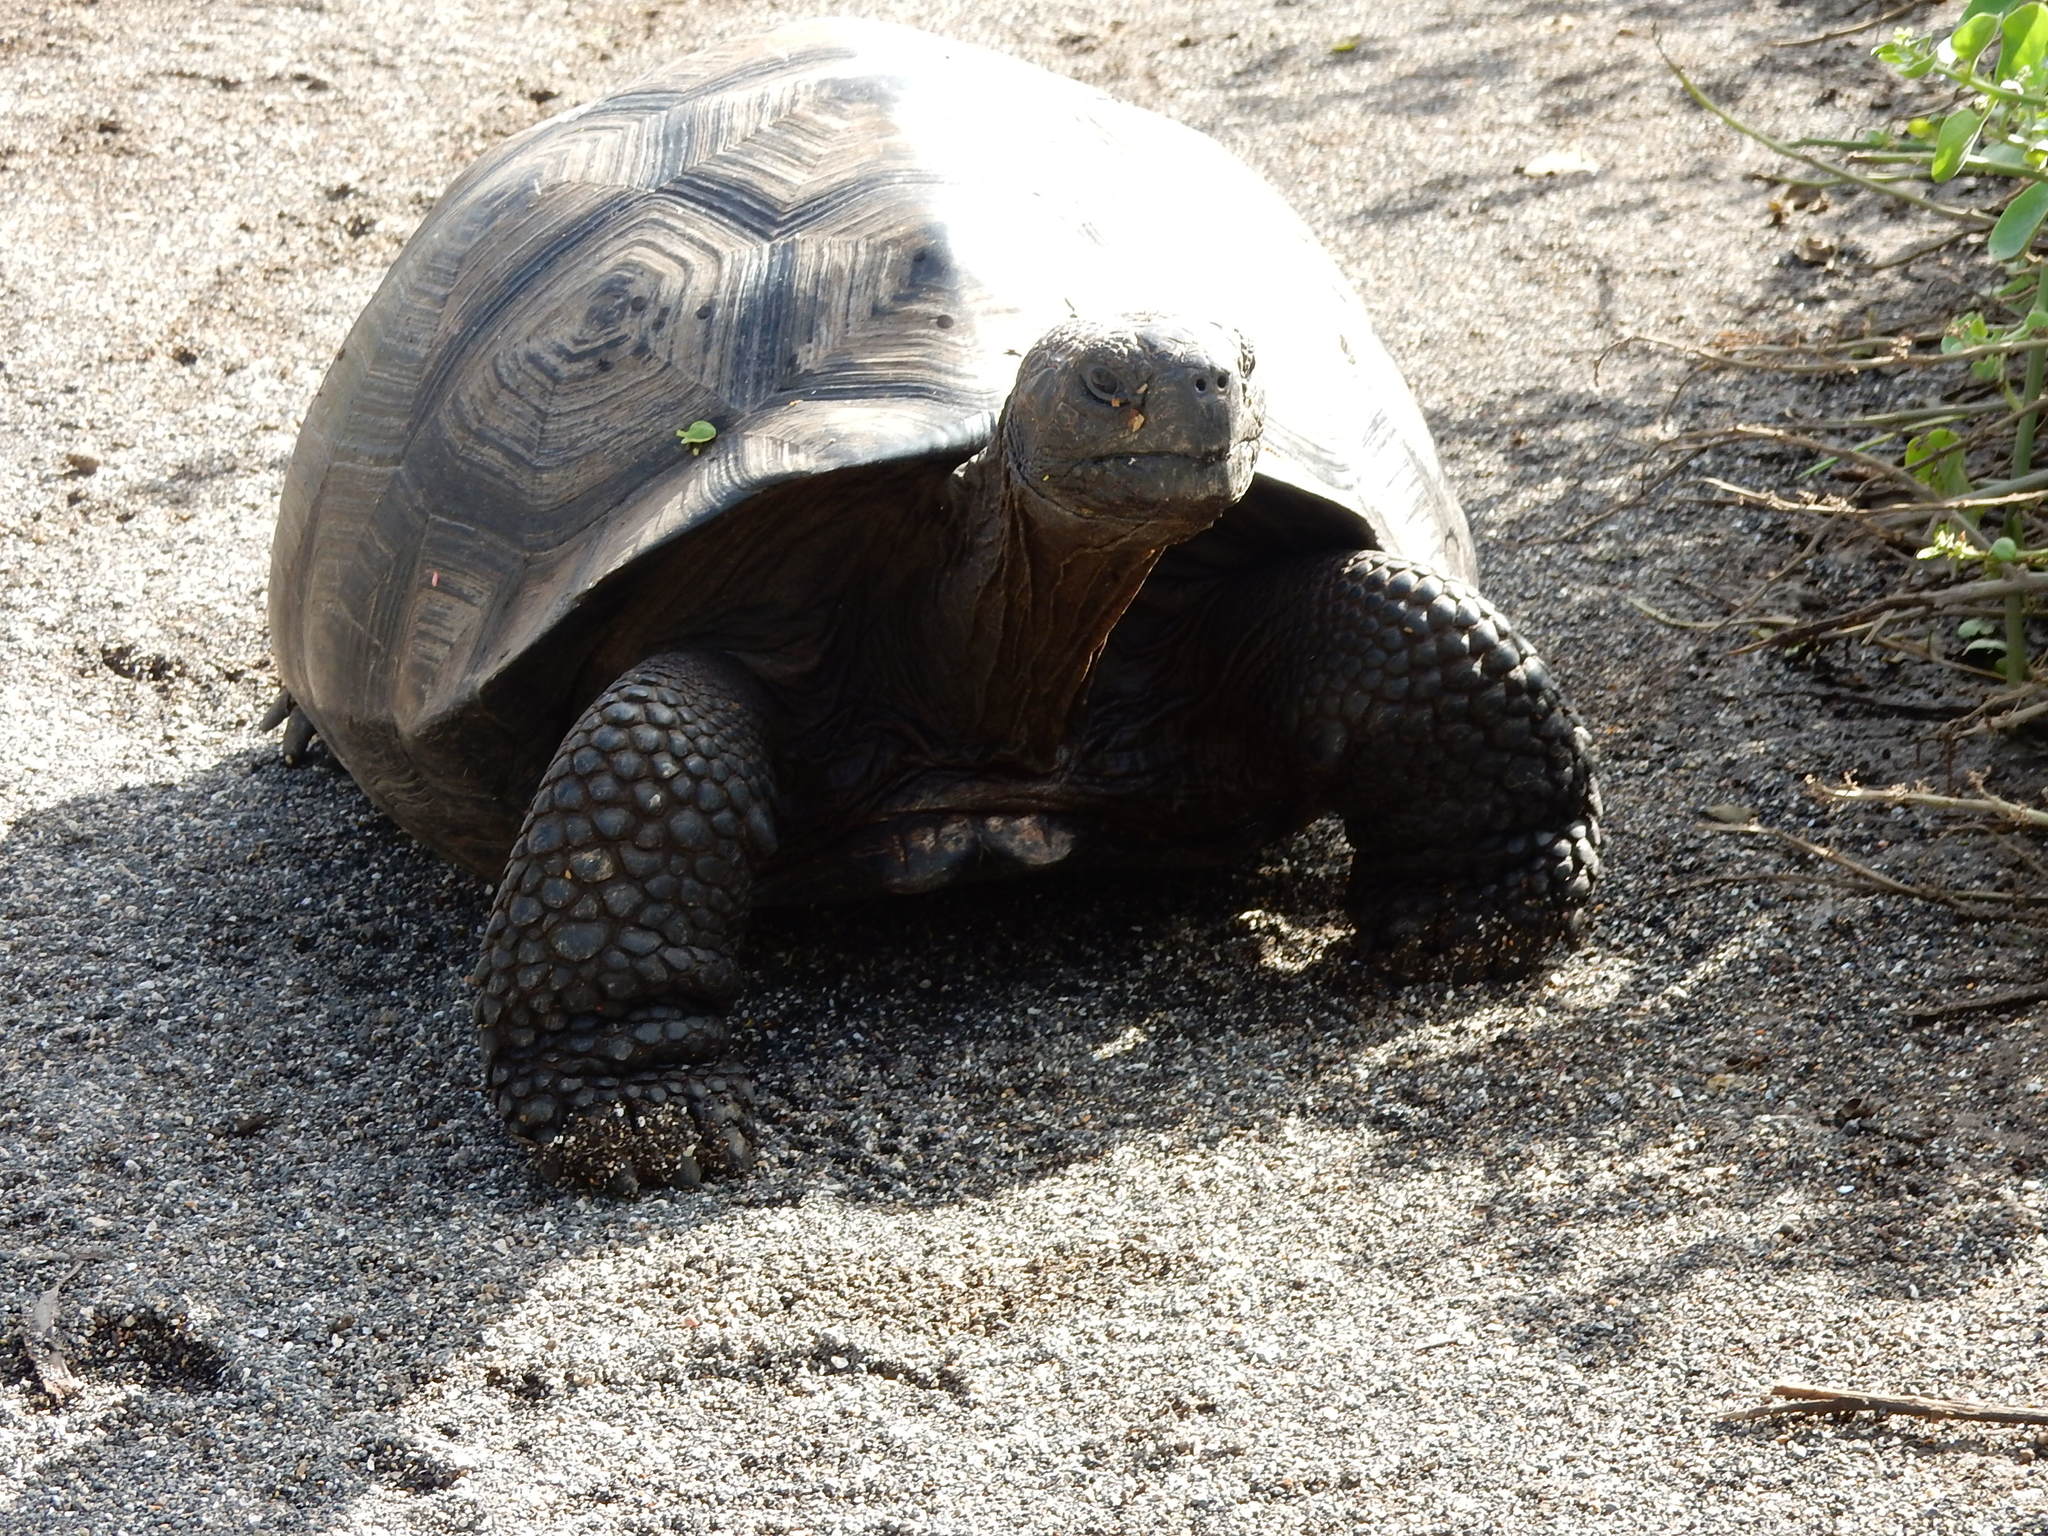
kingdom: Animalia
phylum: Chordata
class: Testudines
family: Testudinidae
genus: Chelonoidis
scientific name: Chelonoidis niger
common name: Charles island giant tortoise
